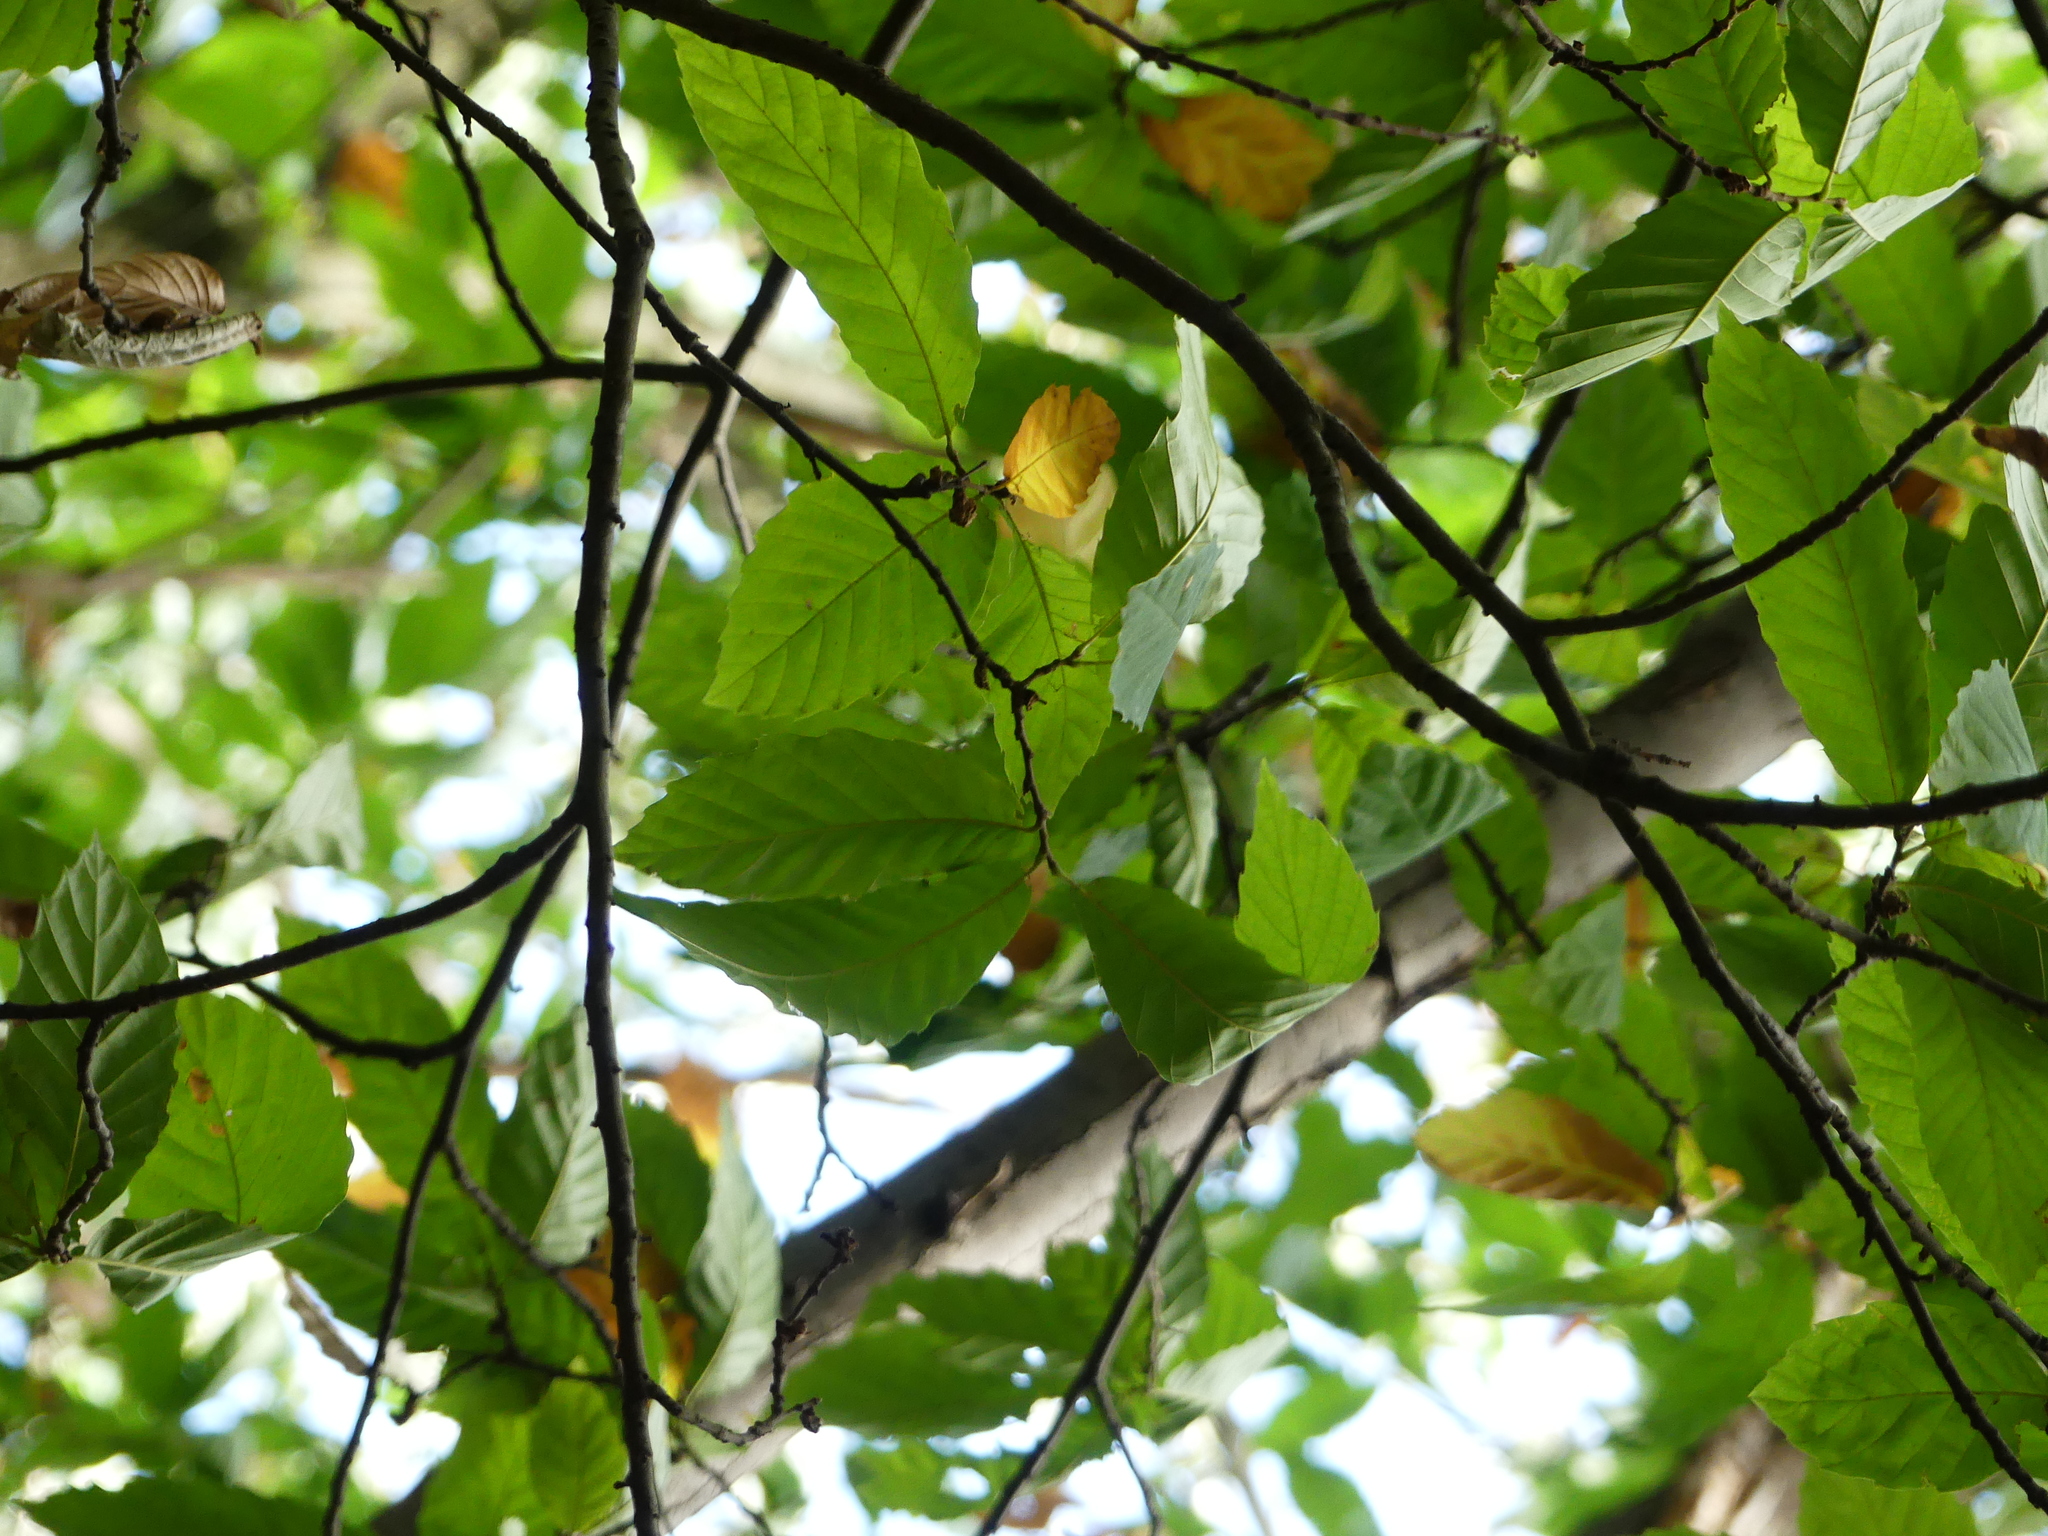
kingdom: Plantae
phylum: Tracheophyta
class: Magnoliopsida
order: Fagales
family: Fagaceae
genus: Castanea
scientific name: Castanea sativa
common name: Sweet chestnut
